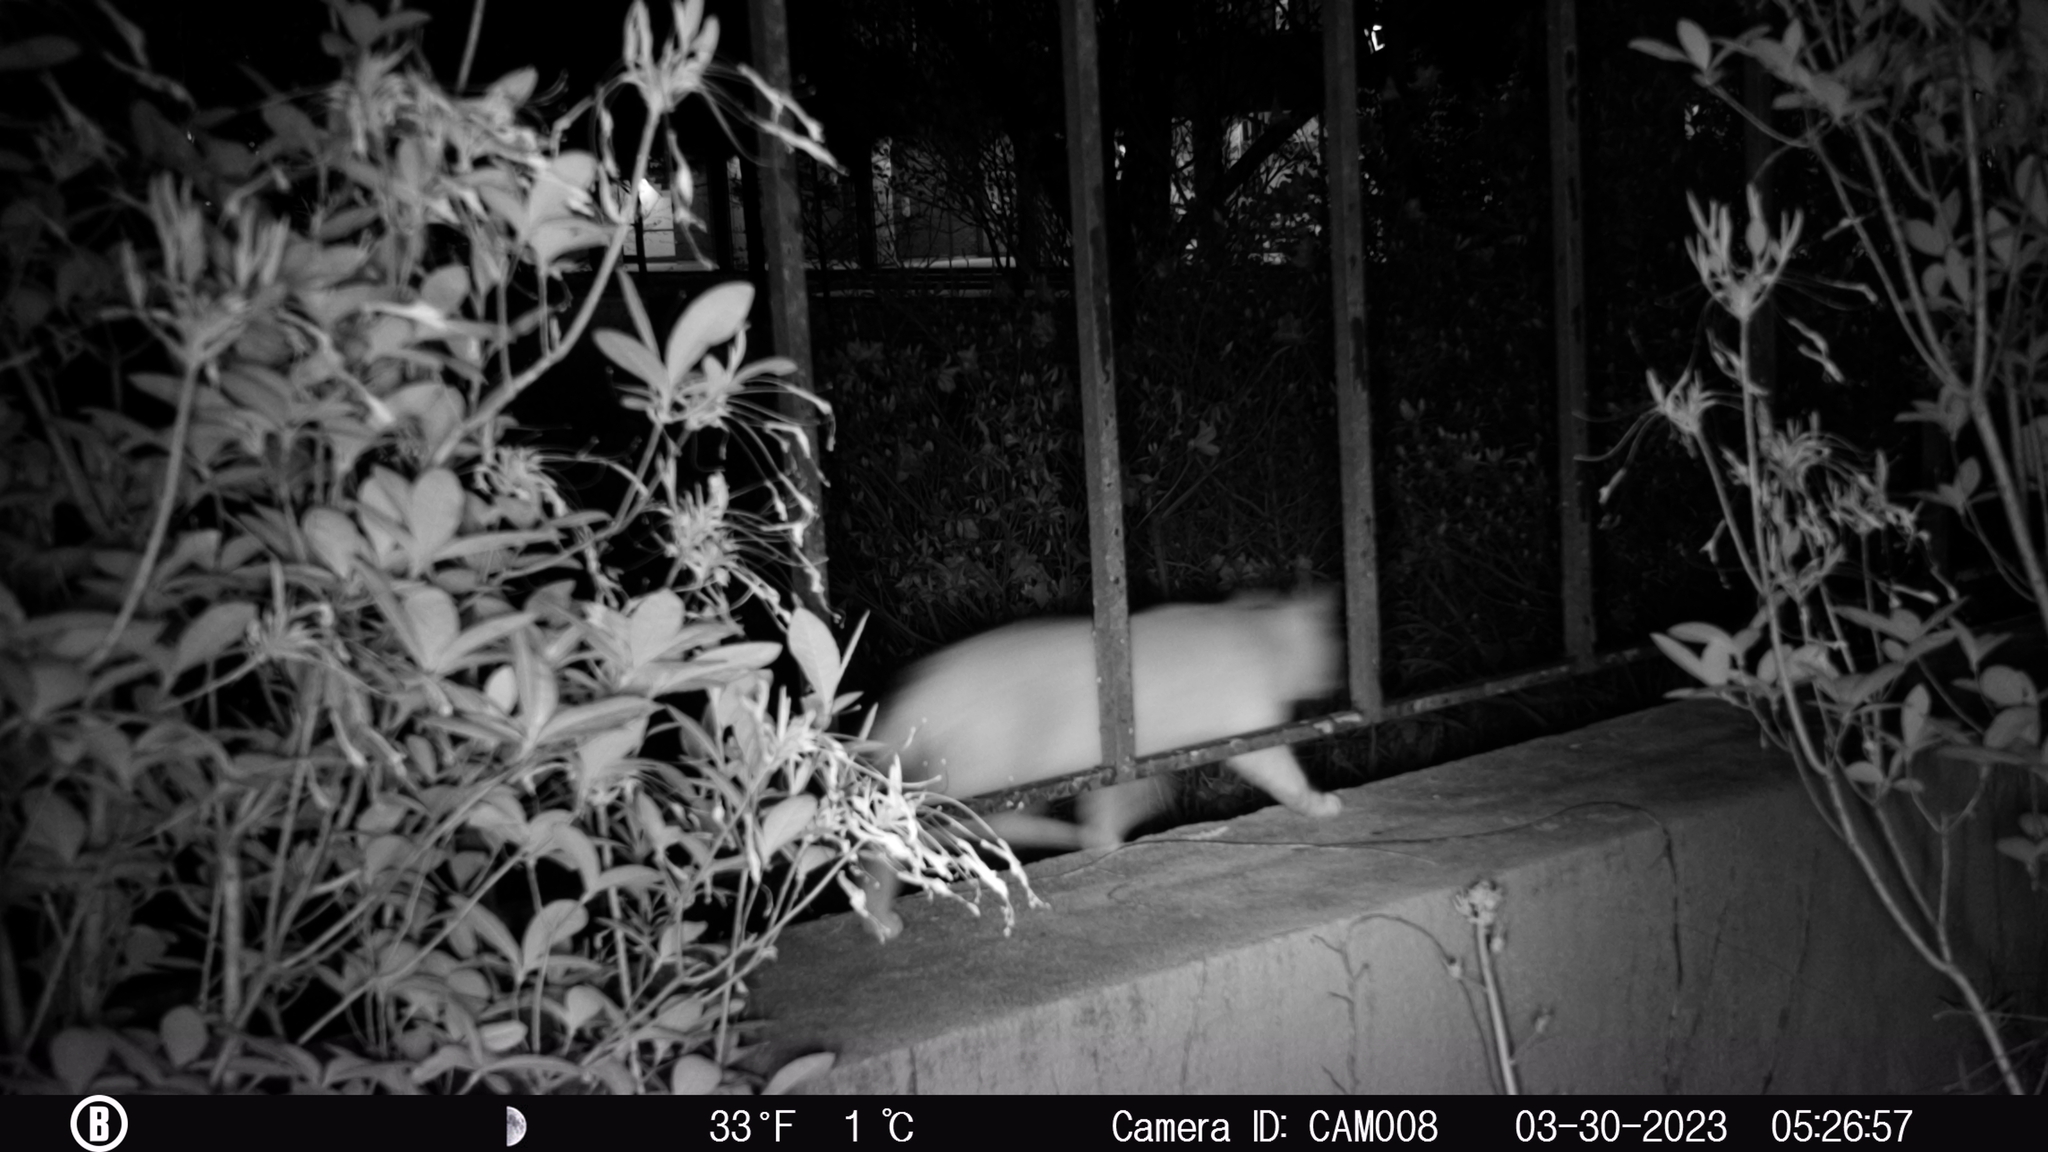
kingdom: Animalia
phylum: Chordata
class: Mammalia
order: Carnivora
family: Felidae
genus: Felis
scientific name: Felis catus
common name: Domestic cat
